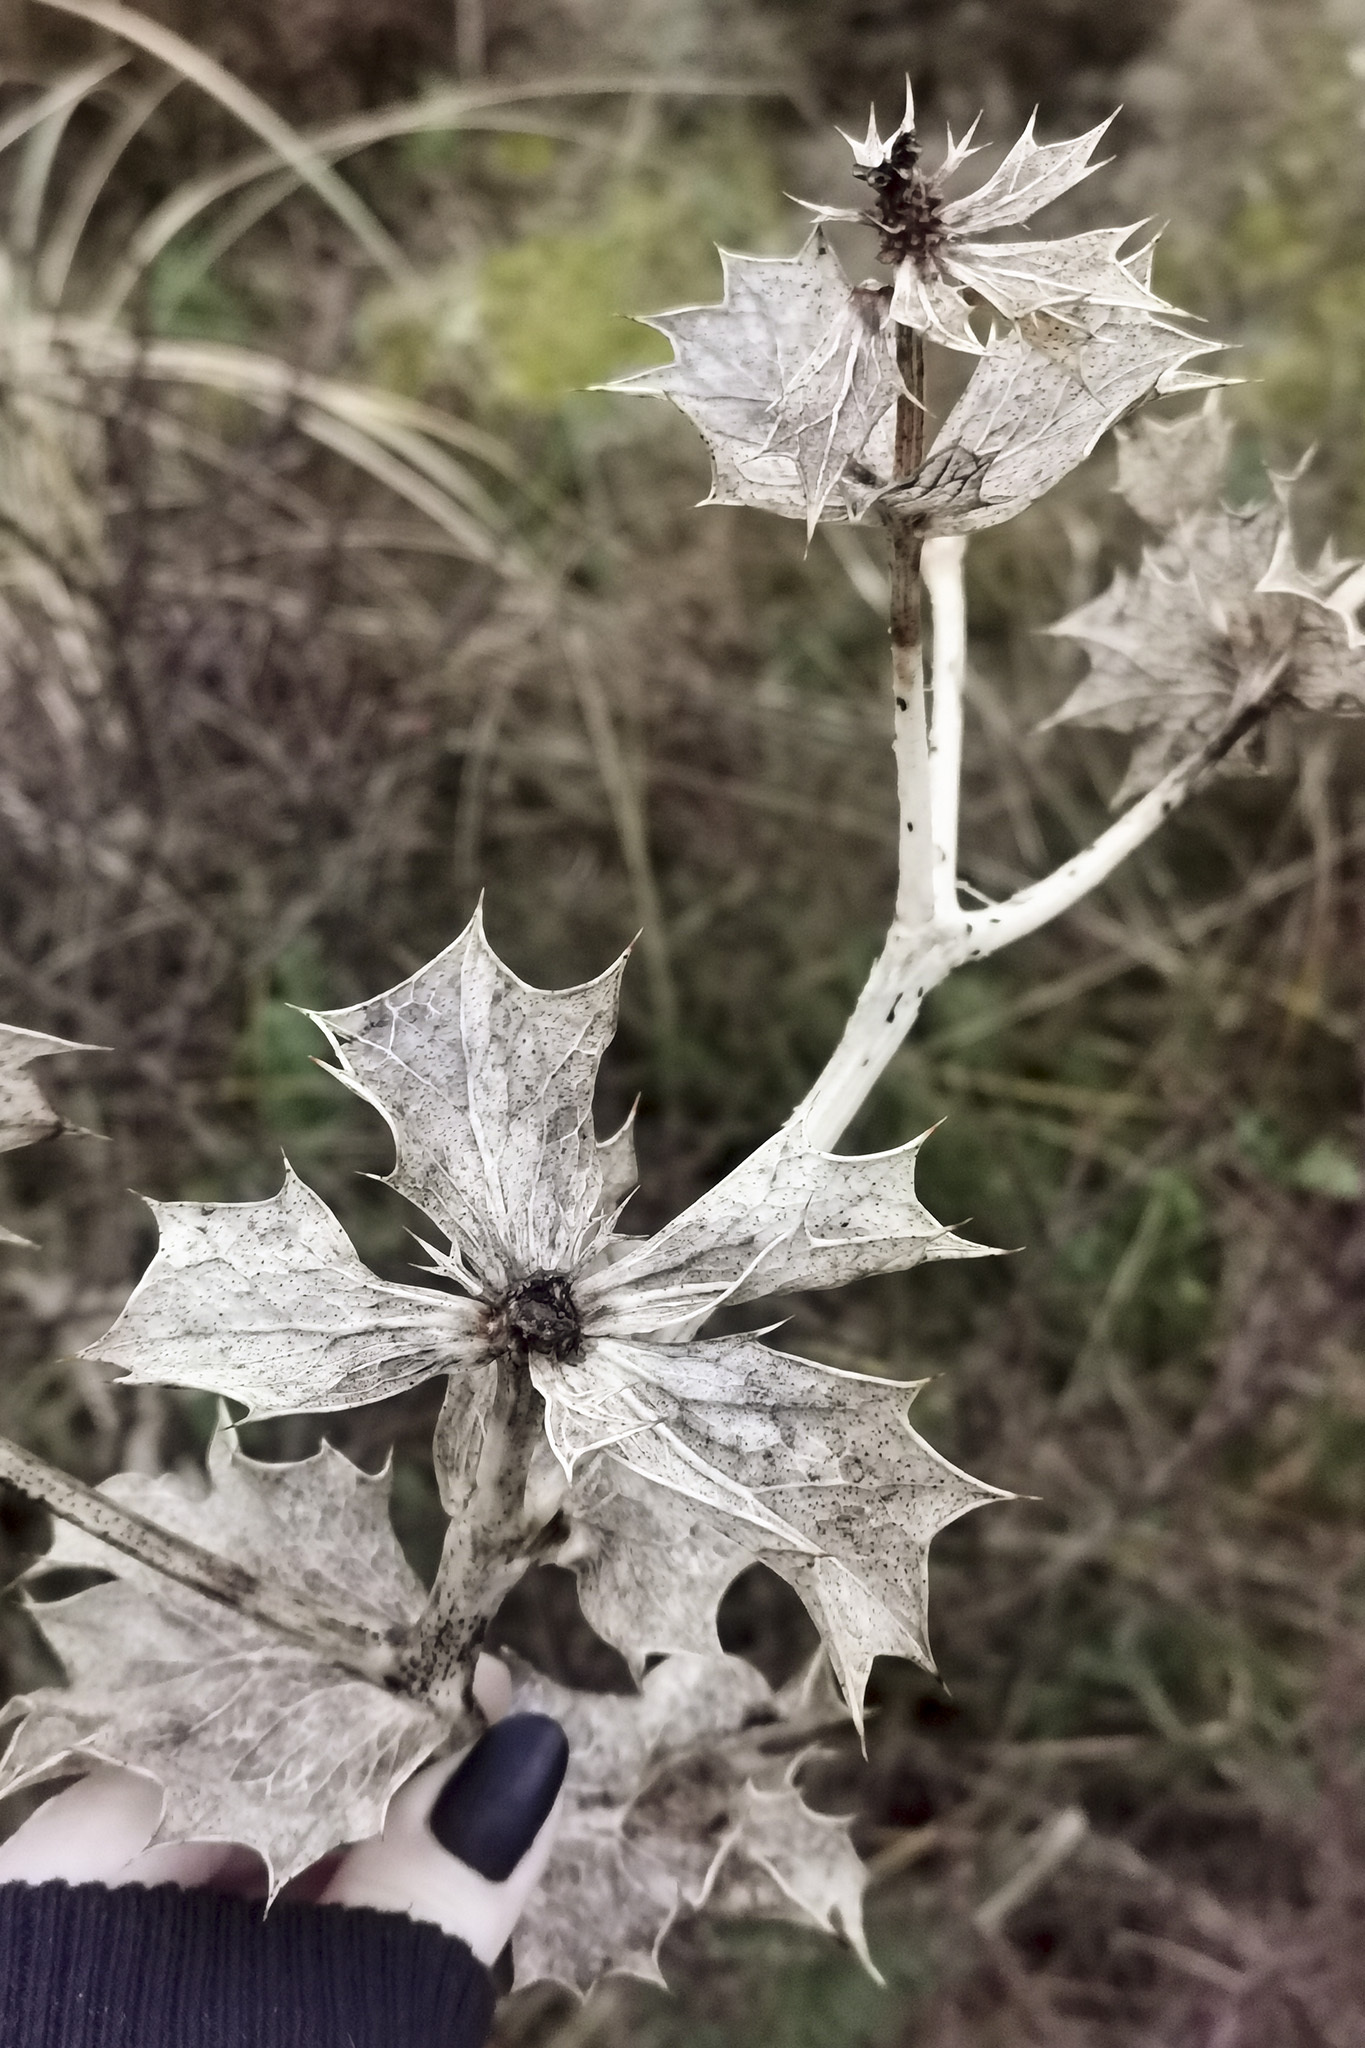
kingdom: Plantae
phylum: Tracheophyta
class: Magnoliopsida
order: Apiales
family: Apiaceae
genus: Eryngium
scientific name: Eryngium maritimum
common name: Sea-holly
